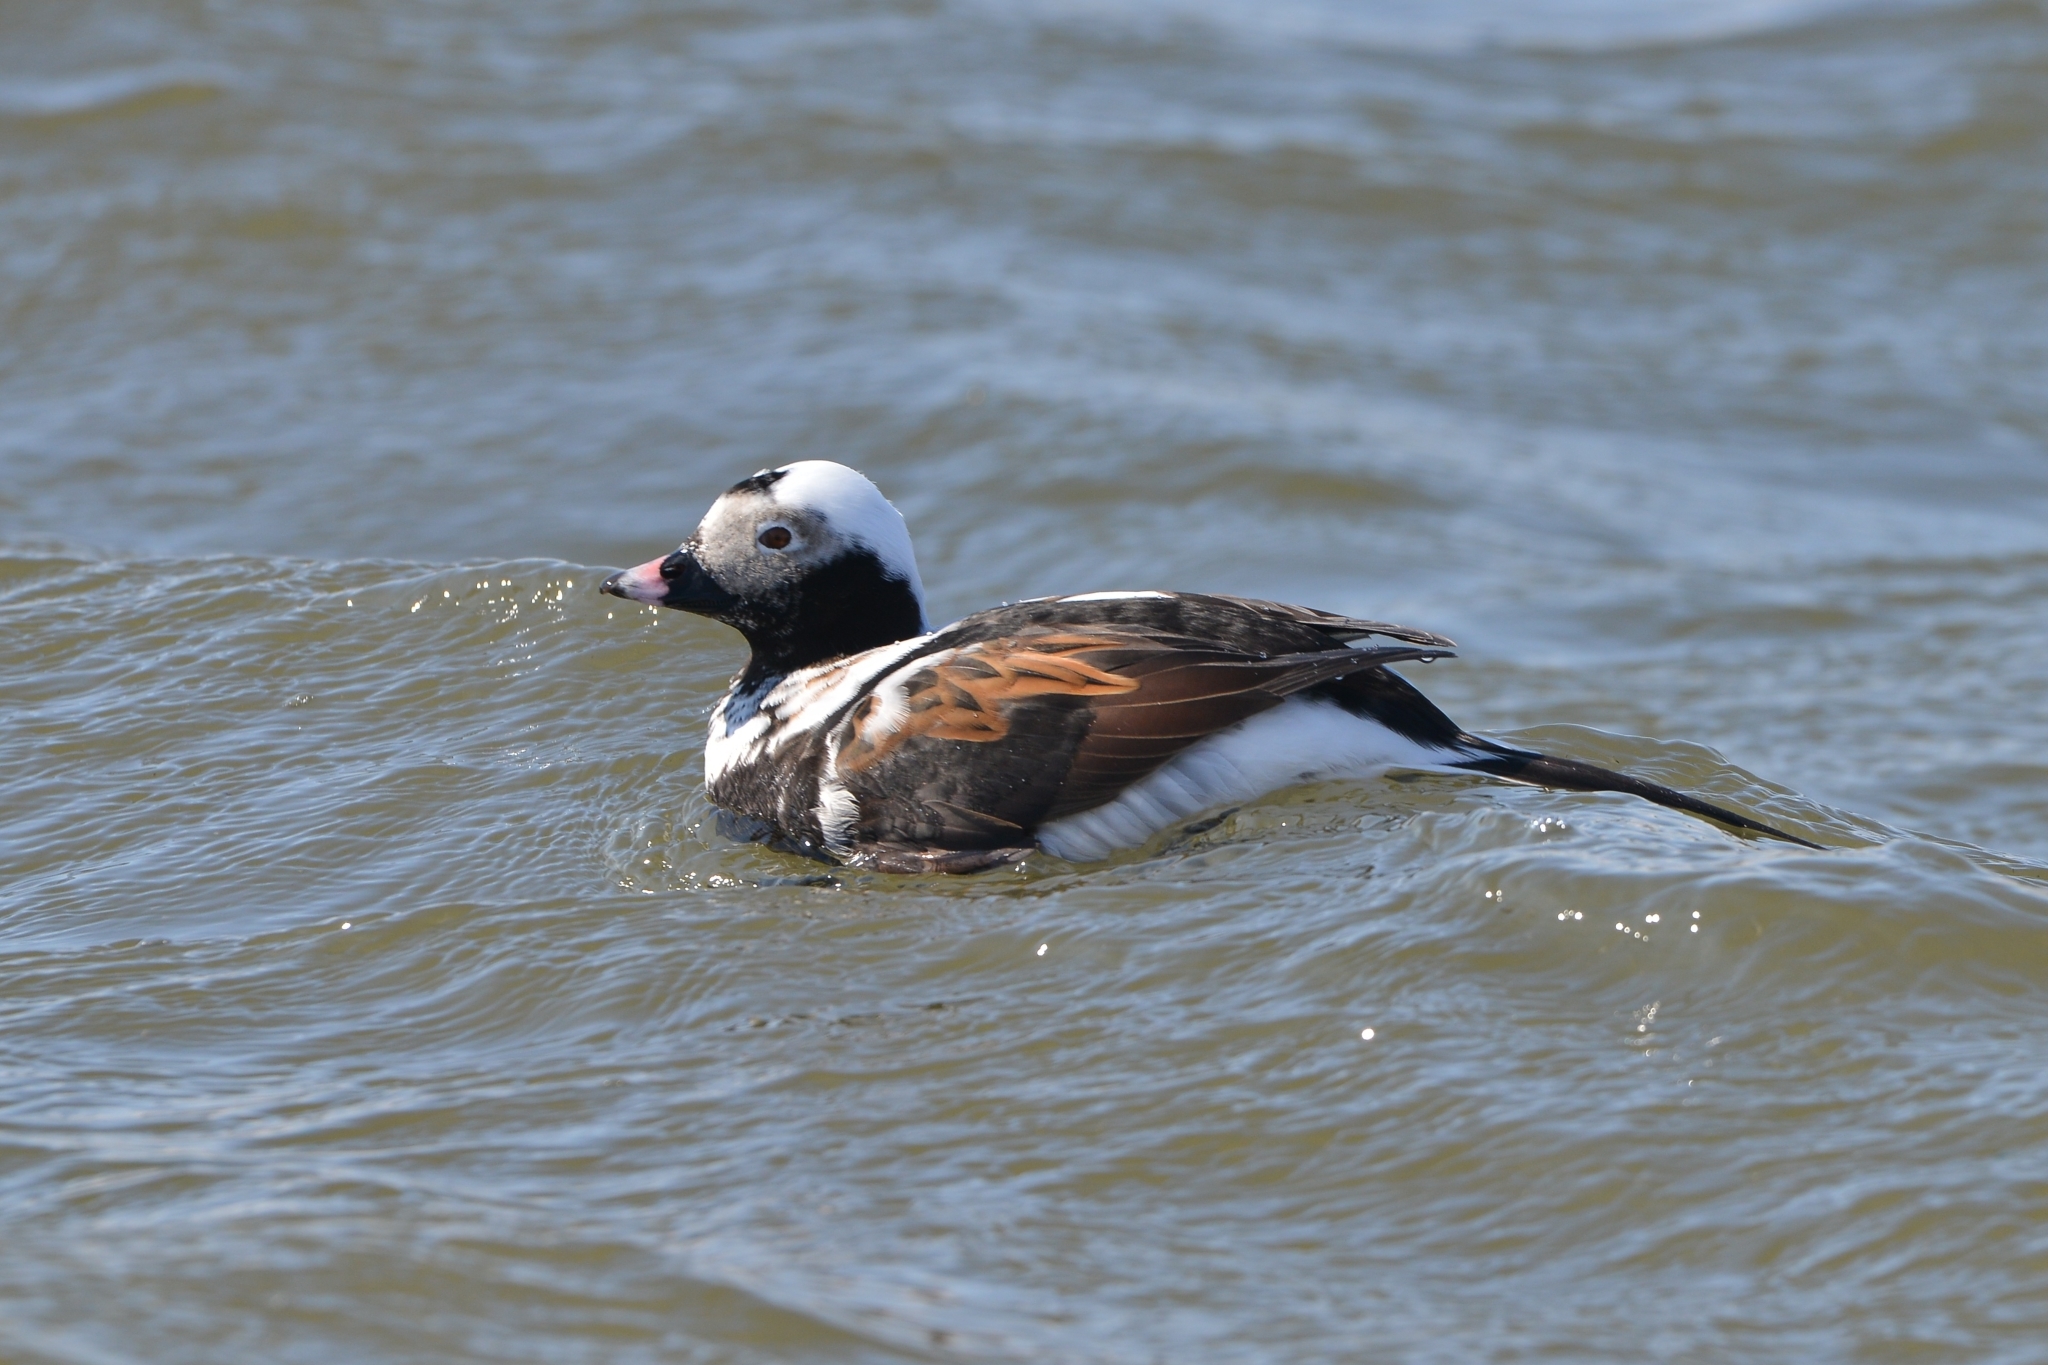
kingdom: Animalia
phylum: Chordata
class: Aves
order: Anseriformes
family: Anatidae
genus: Clangula
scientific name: Clangula hyemalis
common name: Long-tailed duck
